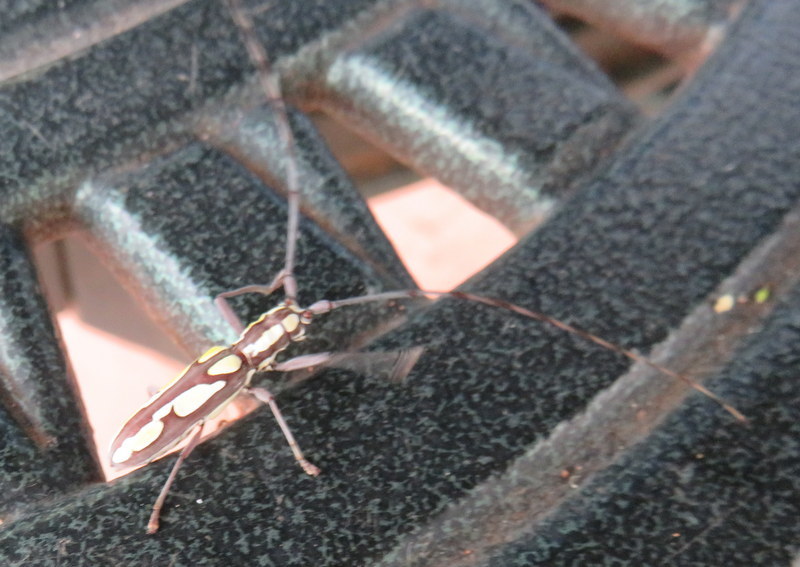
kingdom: Animalia
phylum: Arthropoda
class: Insecta
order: Coleoptera
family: Cerambycidae
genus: Olenecamptus
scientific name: Olenecamptus tessellata
